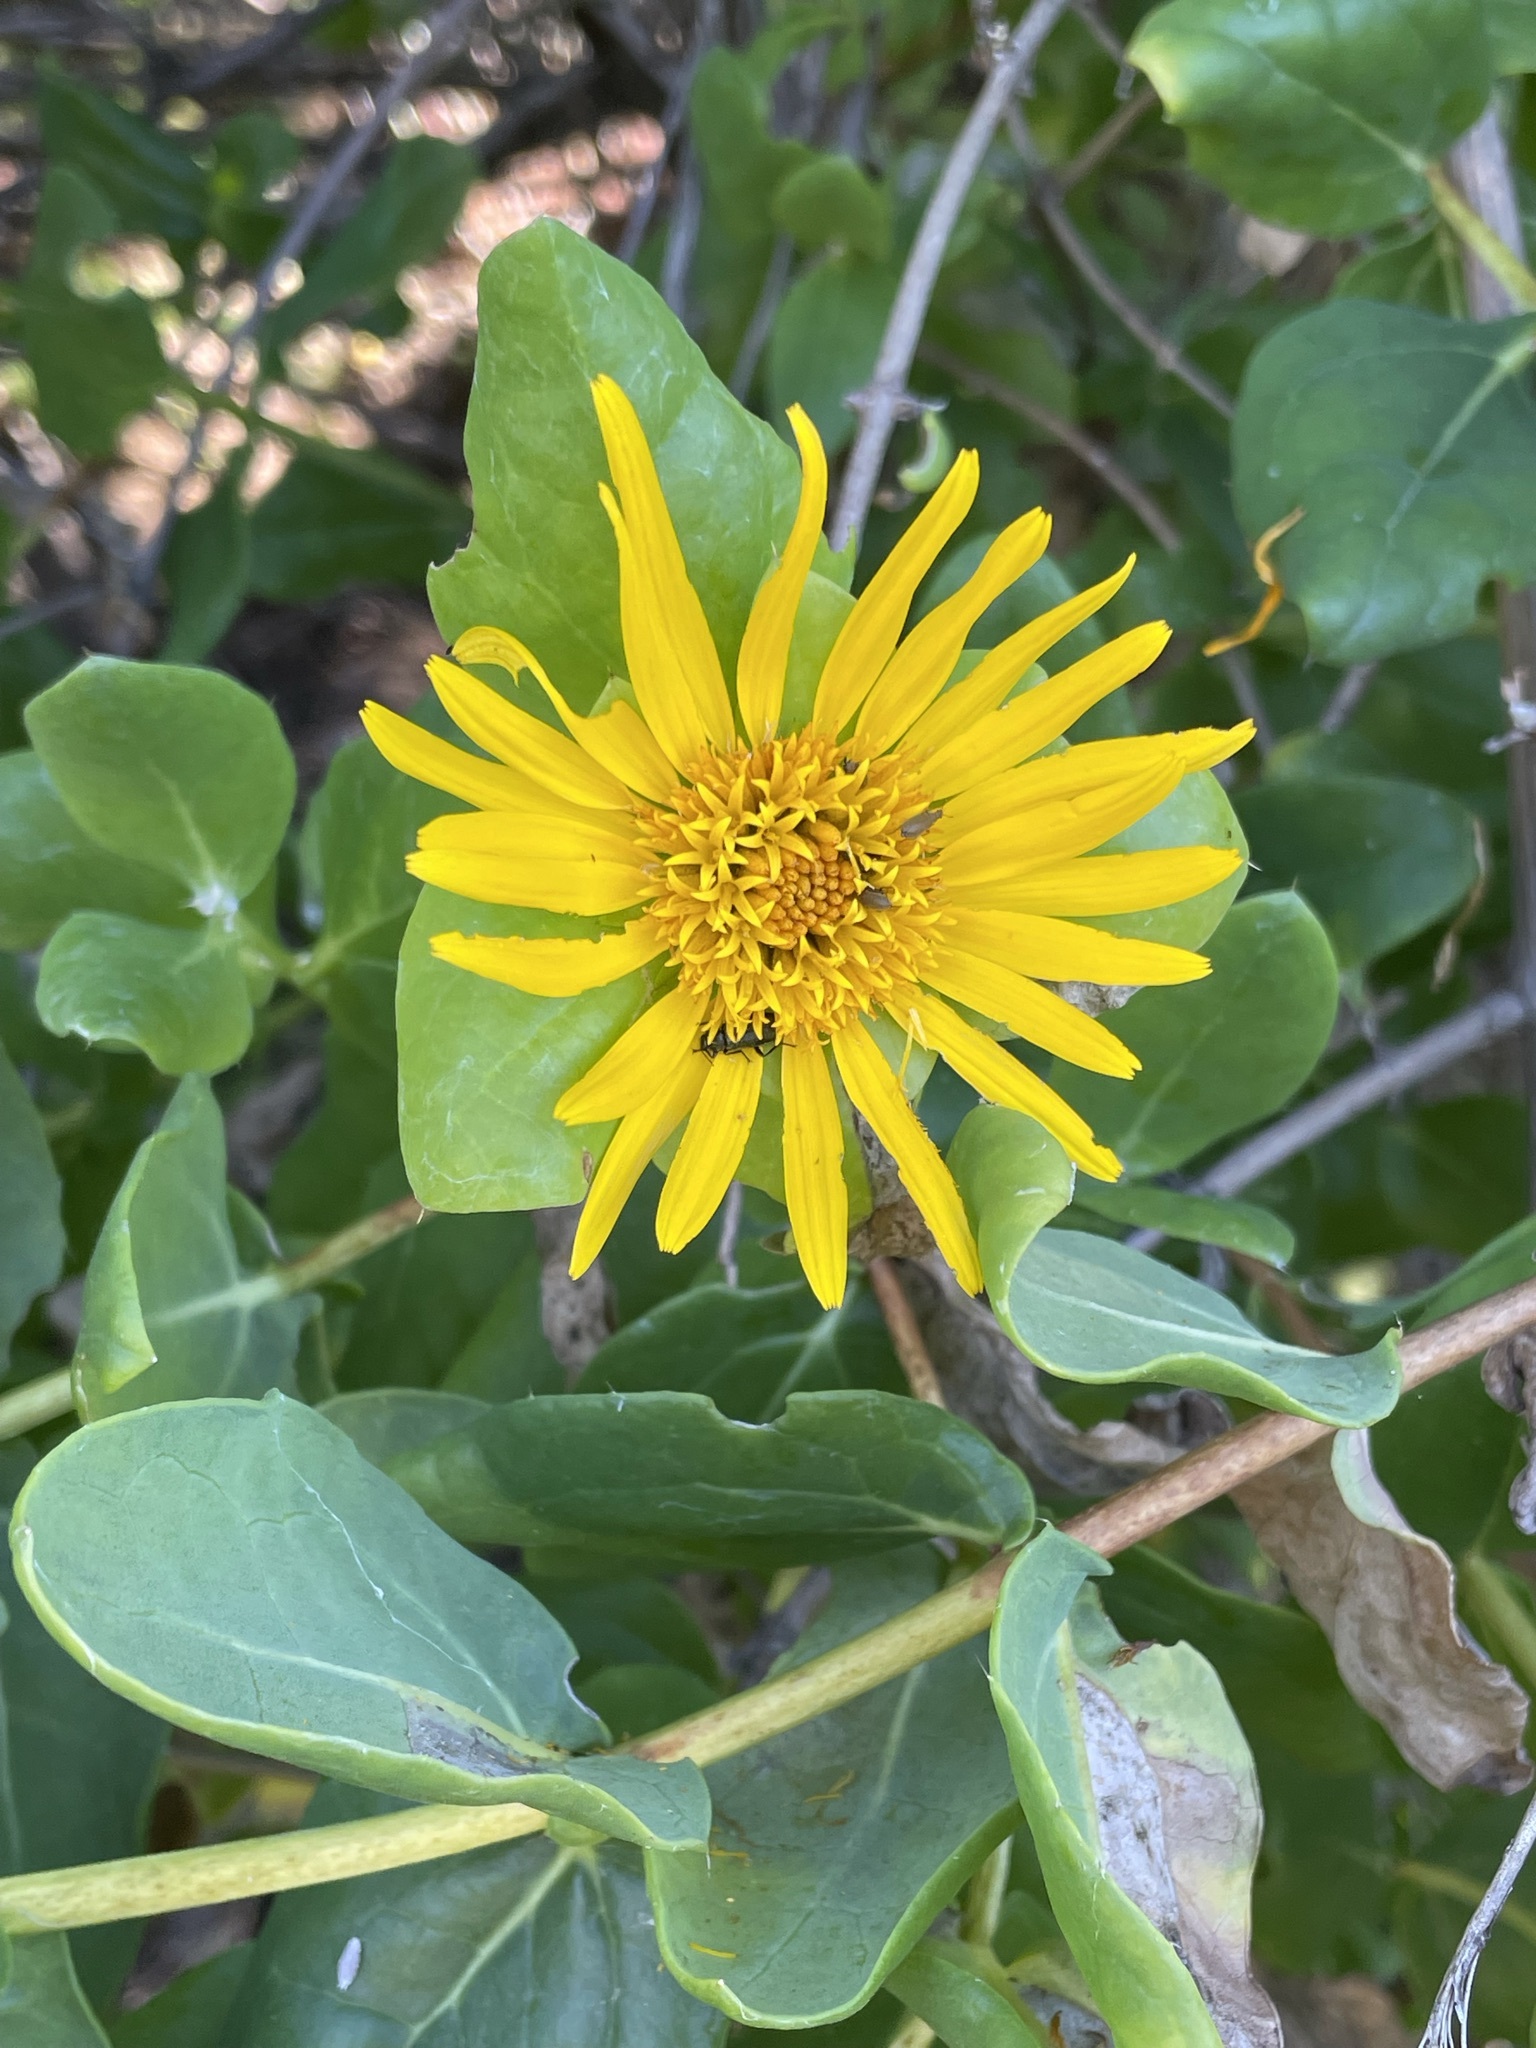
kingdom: Plantae
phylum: Tracheophyta
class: Magnoliopsida
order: Asterales
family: Asteraceae
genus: Didelta
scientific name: Didelta spinosa
